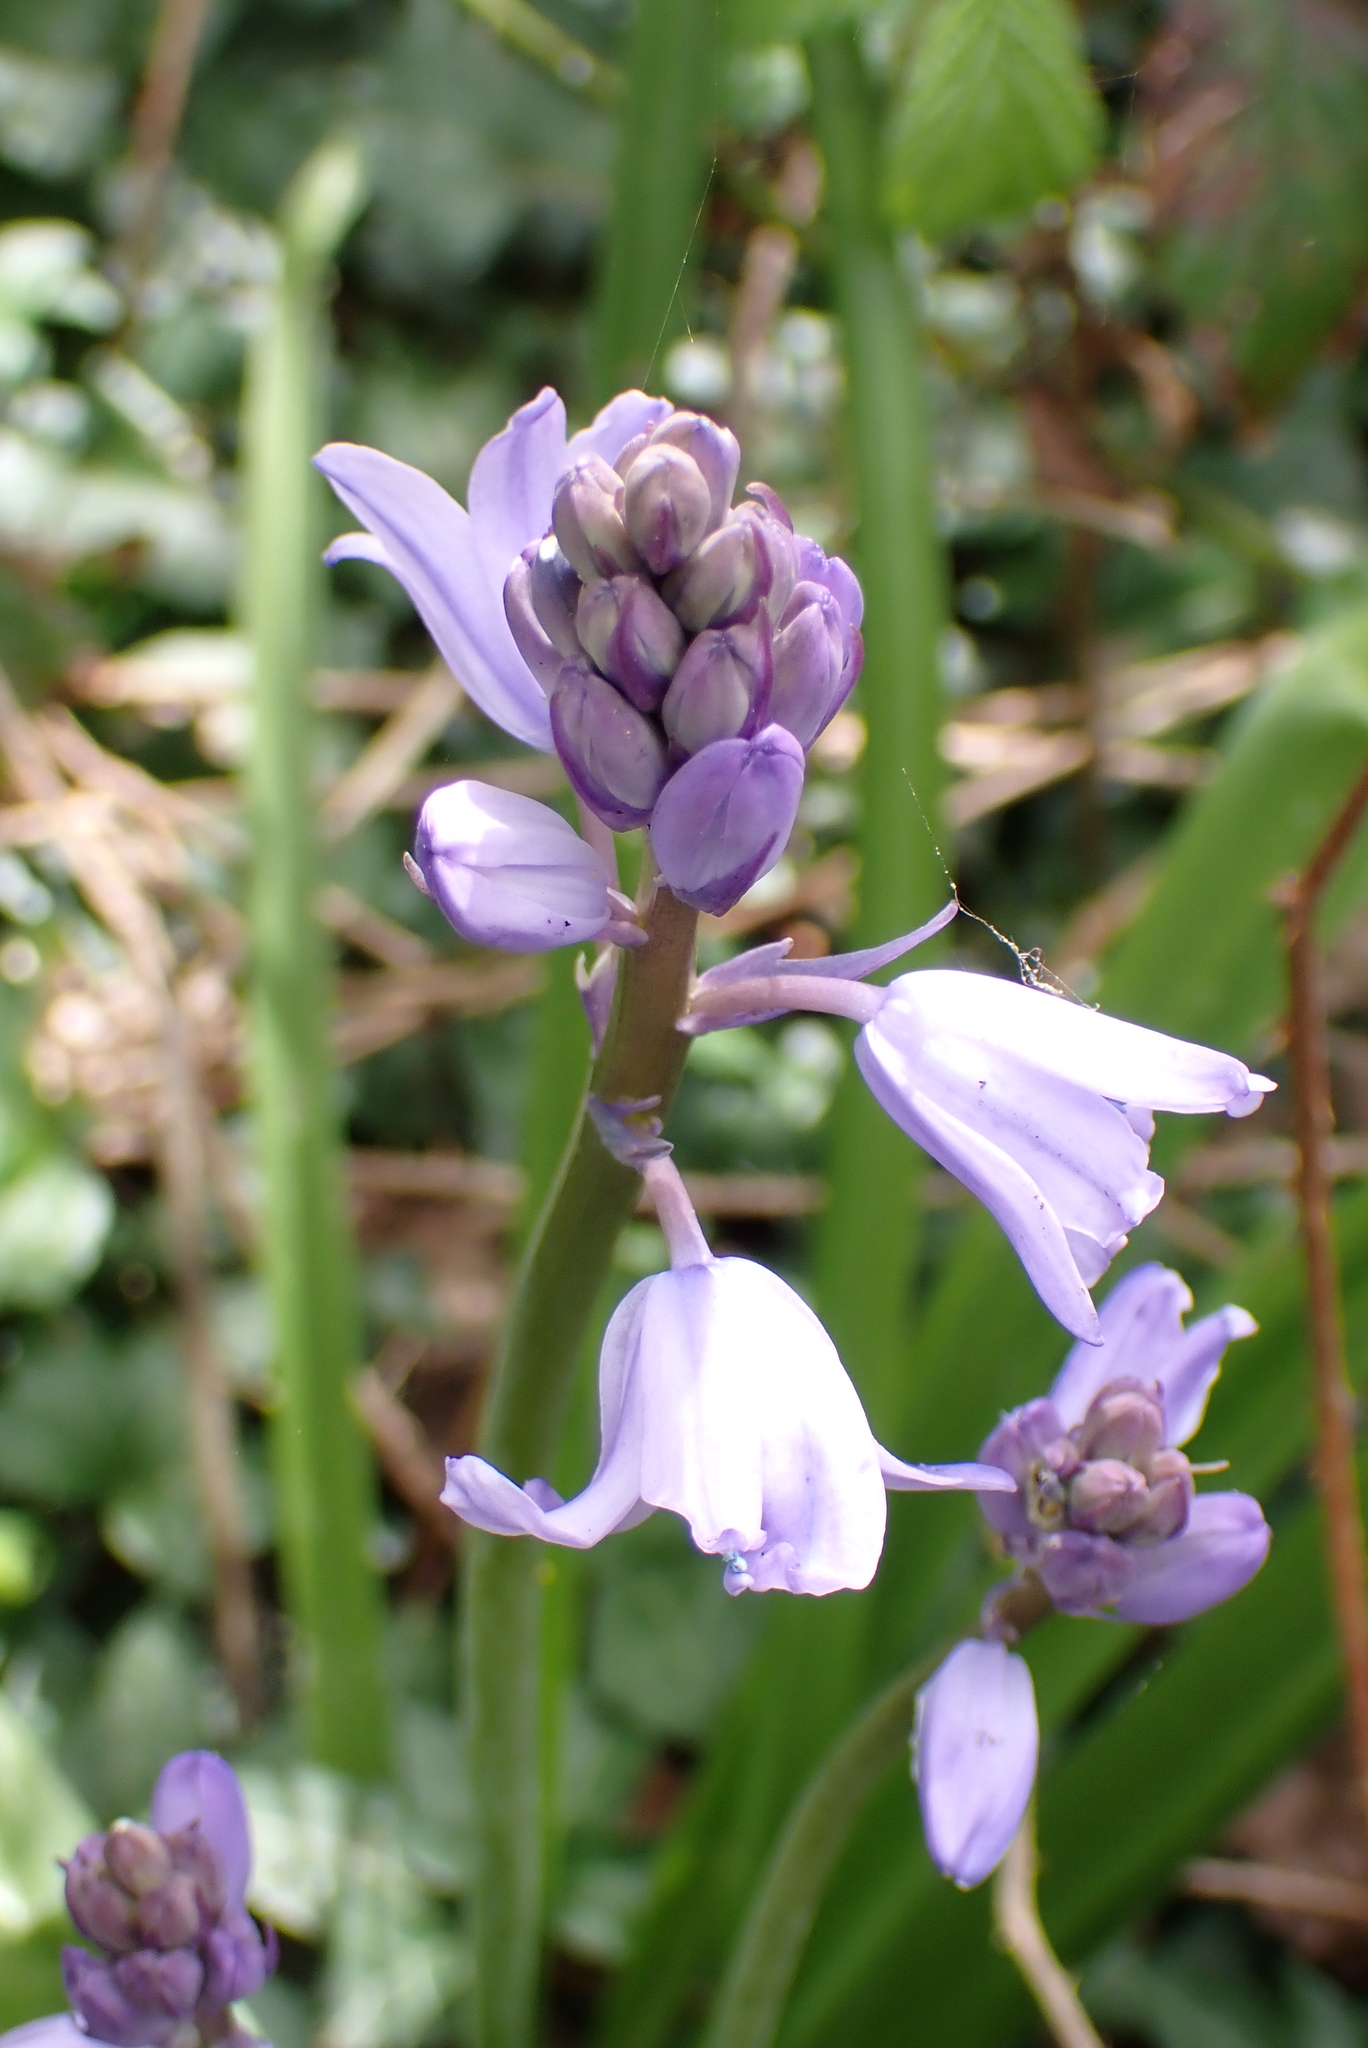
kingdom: Plantae
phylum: Tracheophyta
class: Liliopsida
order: Asparagales
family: Asparagaceae
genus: Hyacinthoides
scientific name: Hyacinthoides hispanica
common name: Spanish bluebell
